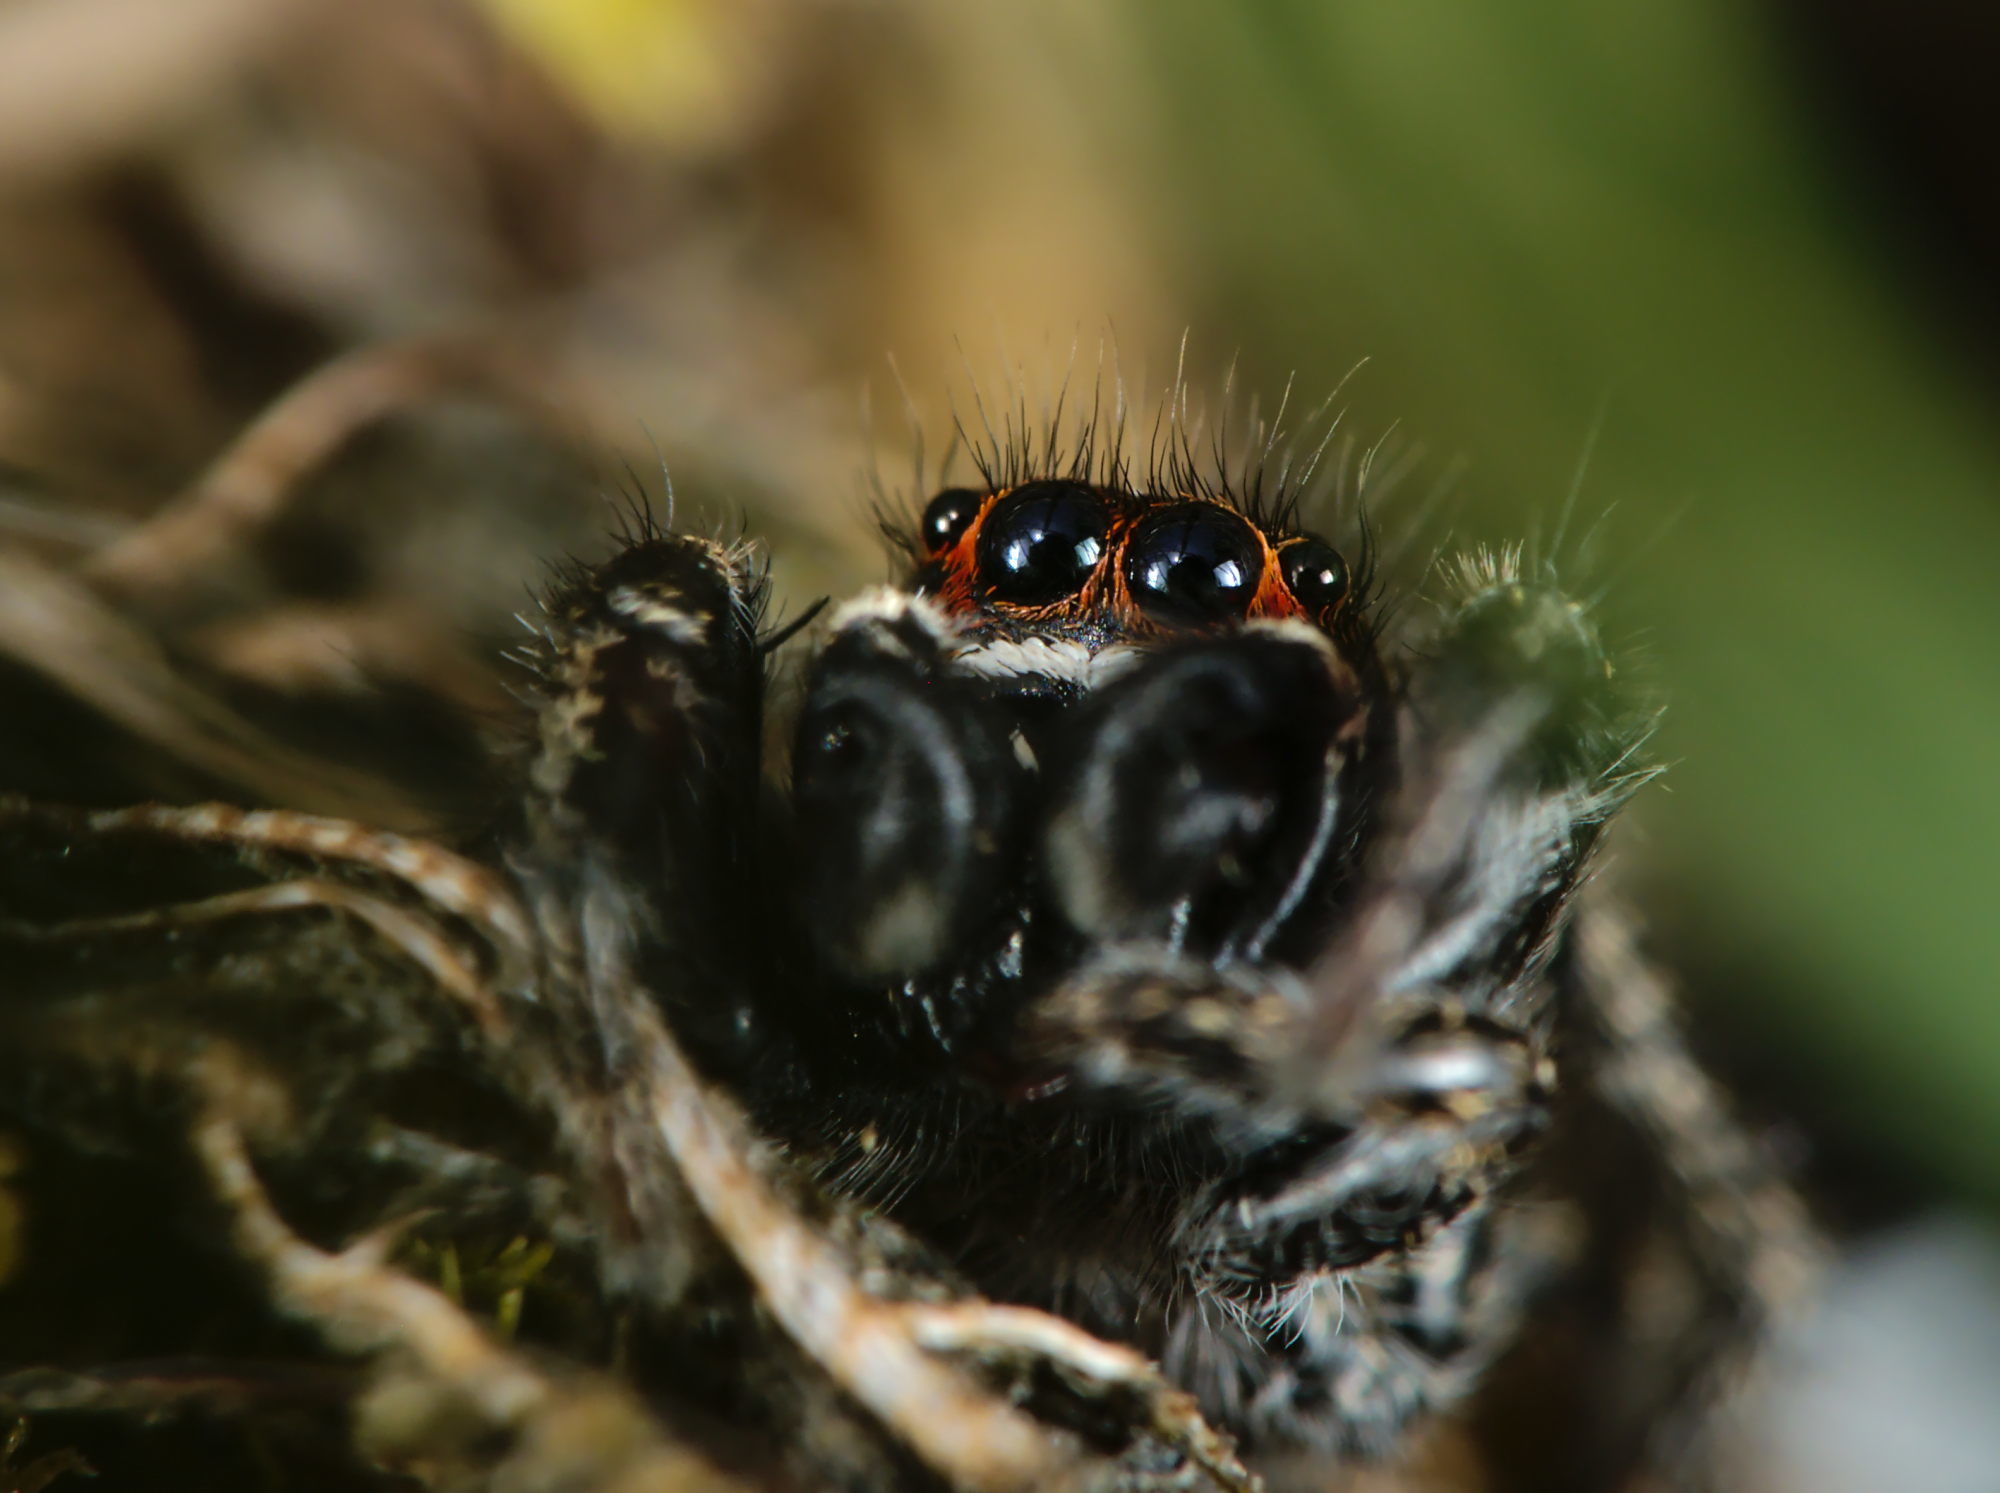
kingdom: Animalia
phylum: Arthropoda
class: Arachnida
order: Araneae
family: Salticidae
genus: Pellenes
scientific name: Pellenes tripunctatus
